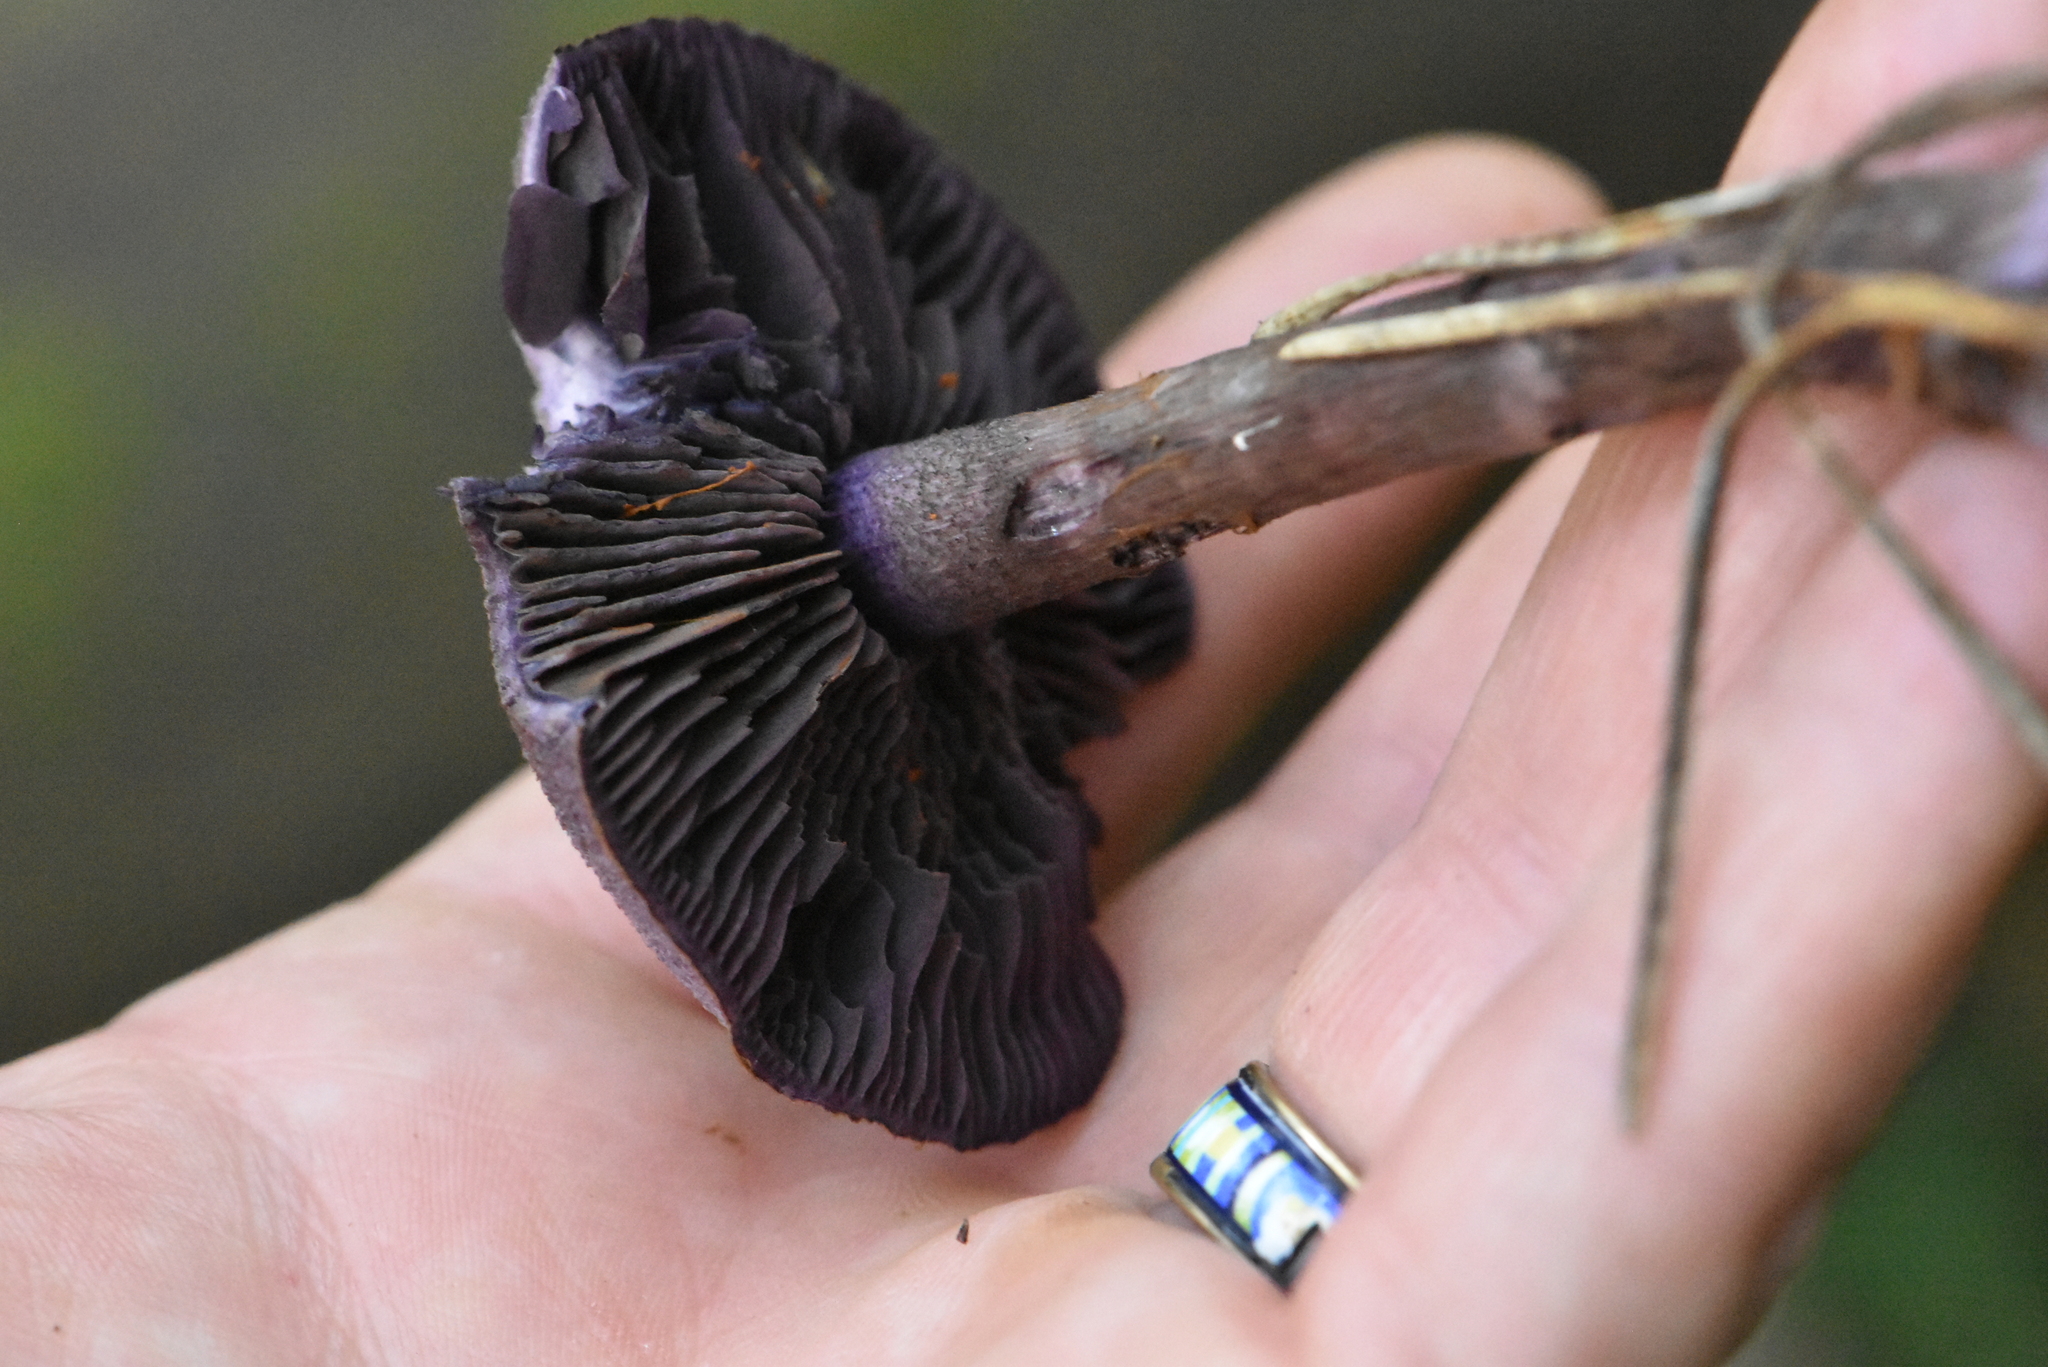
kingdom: Fungi
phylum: Basidiomycota
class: Agaricomycetes
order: Agaricales
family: Cortinariaceae
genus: Cortinarius
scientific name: Cortinarius violaceus
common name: Violet webcap
